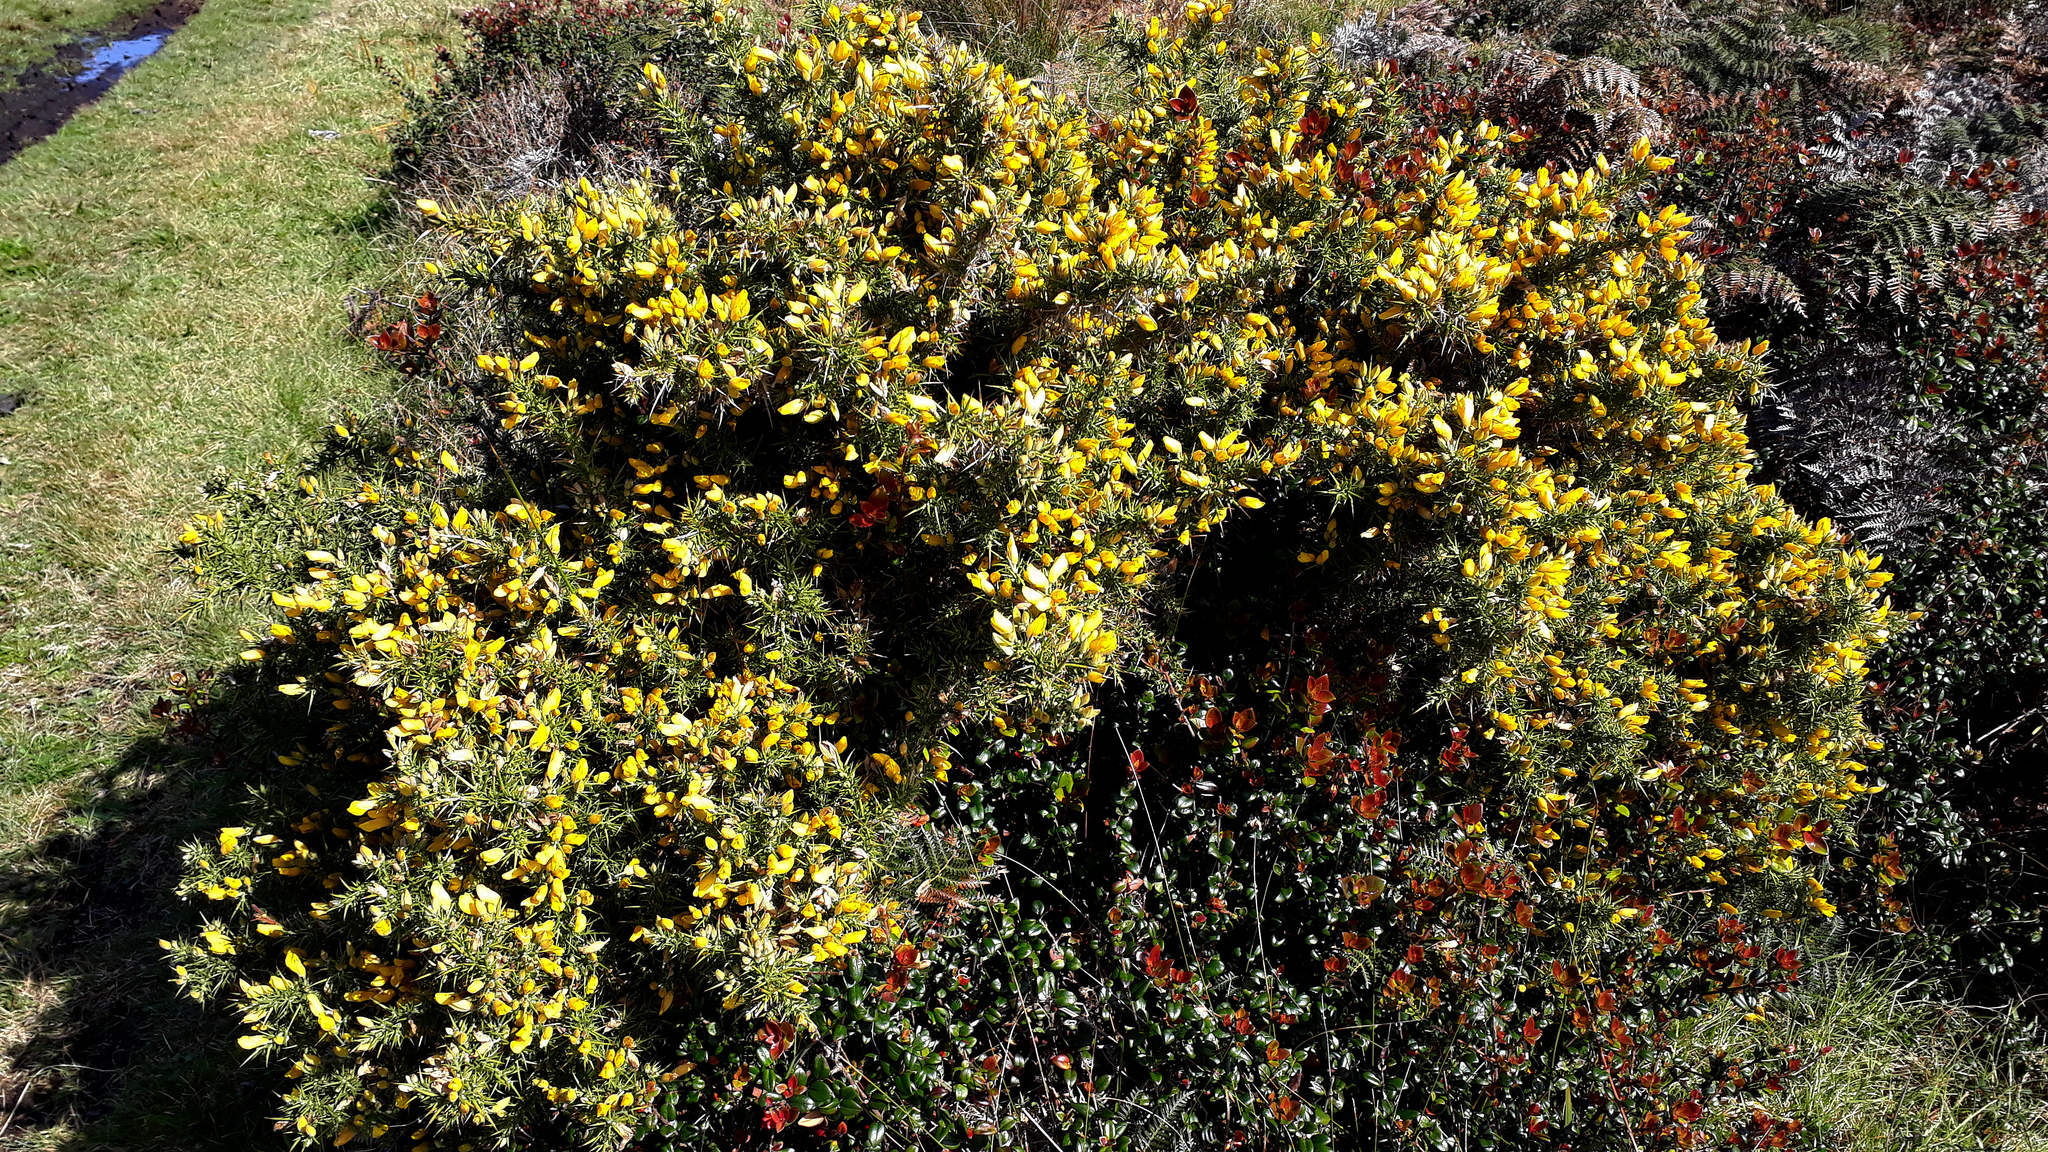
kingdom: Plantae
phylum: Tracheophyta
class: Magnoliopsida
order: Fabales
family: Fabaceae
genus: Ulex
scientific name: Ulex europaeus
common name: Common gorse
